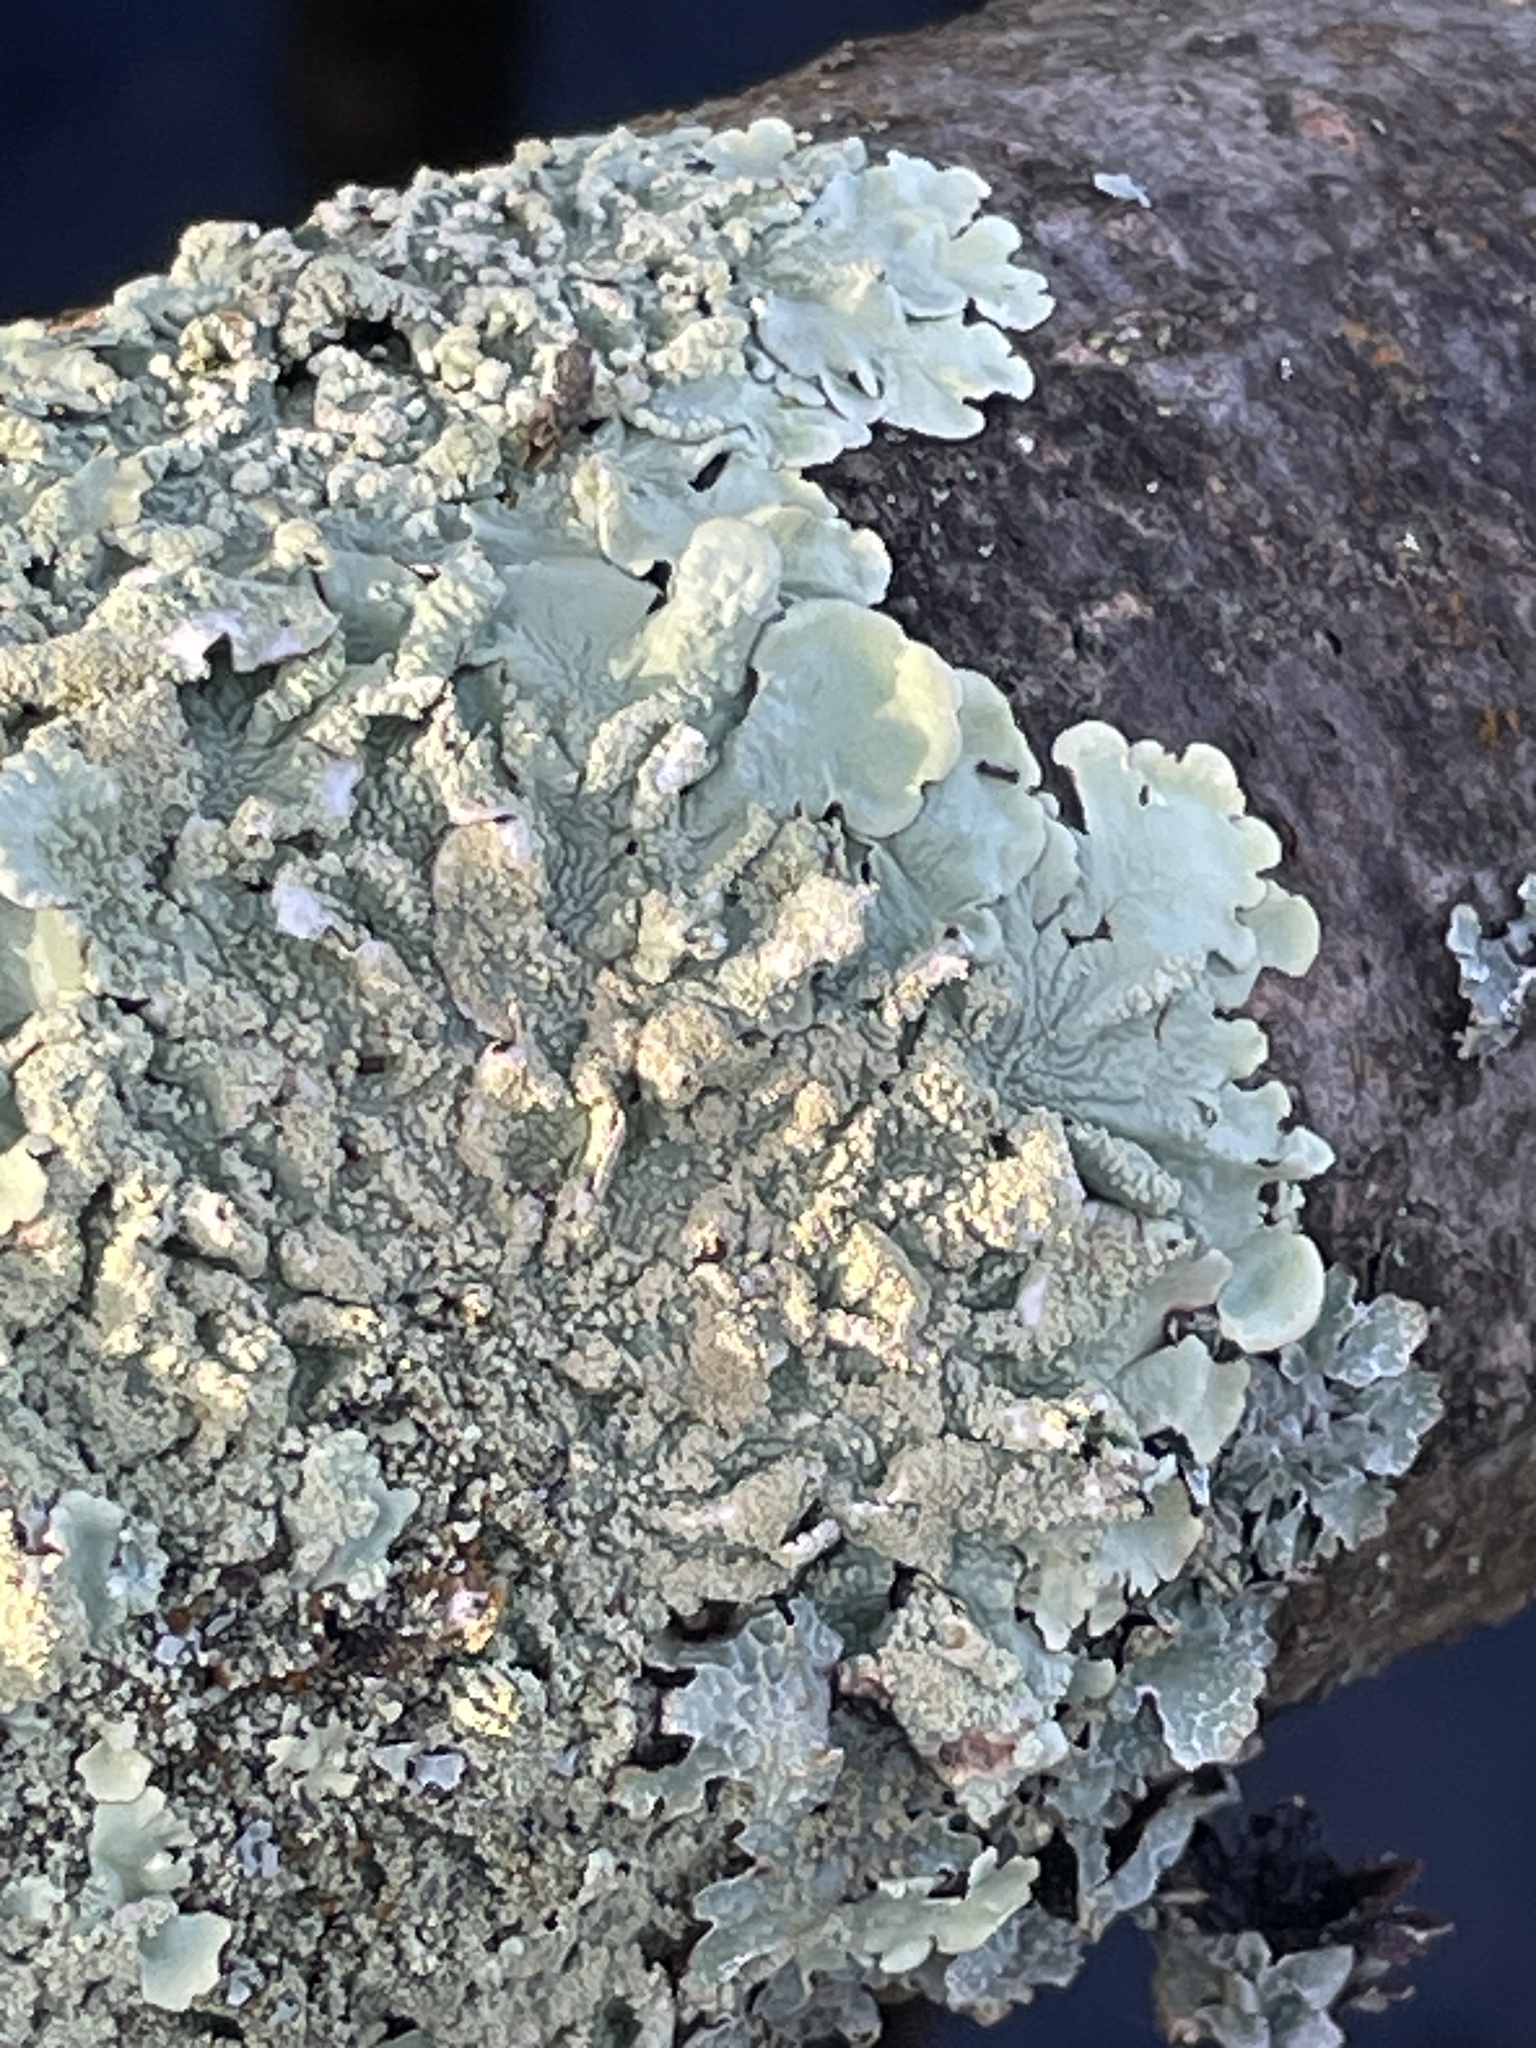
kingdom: Fungi
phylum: Ascomycota
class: Lecanoromycetes
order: Lecanorales
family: Parmeliaceae
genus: Flavoparmelia
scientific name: Flavoparmelia caperata
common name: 40-mile per hour lichen
